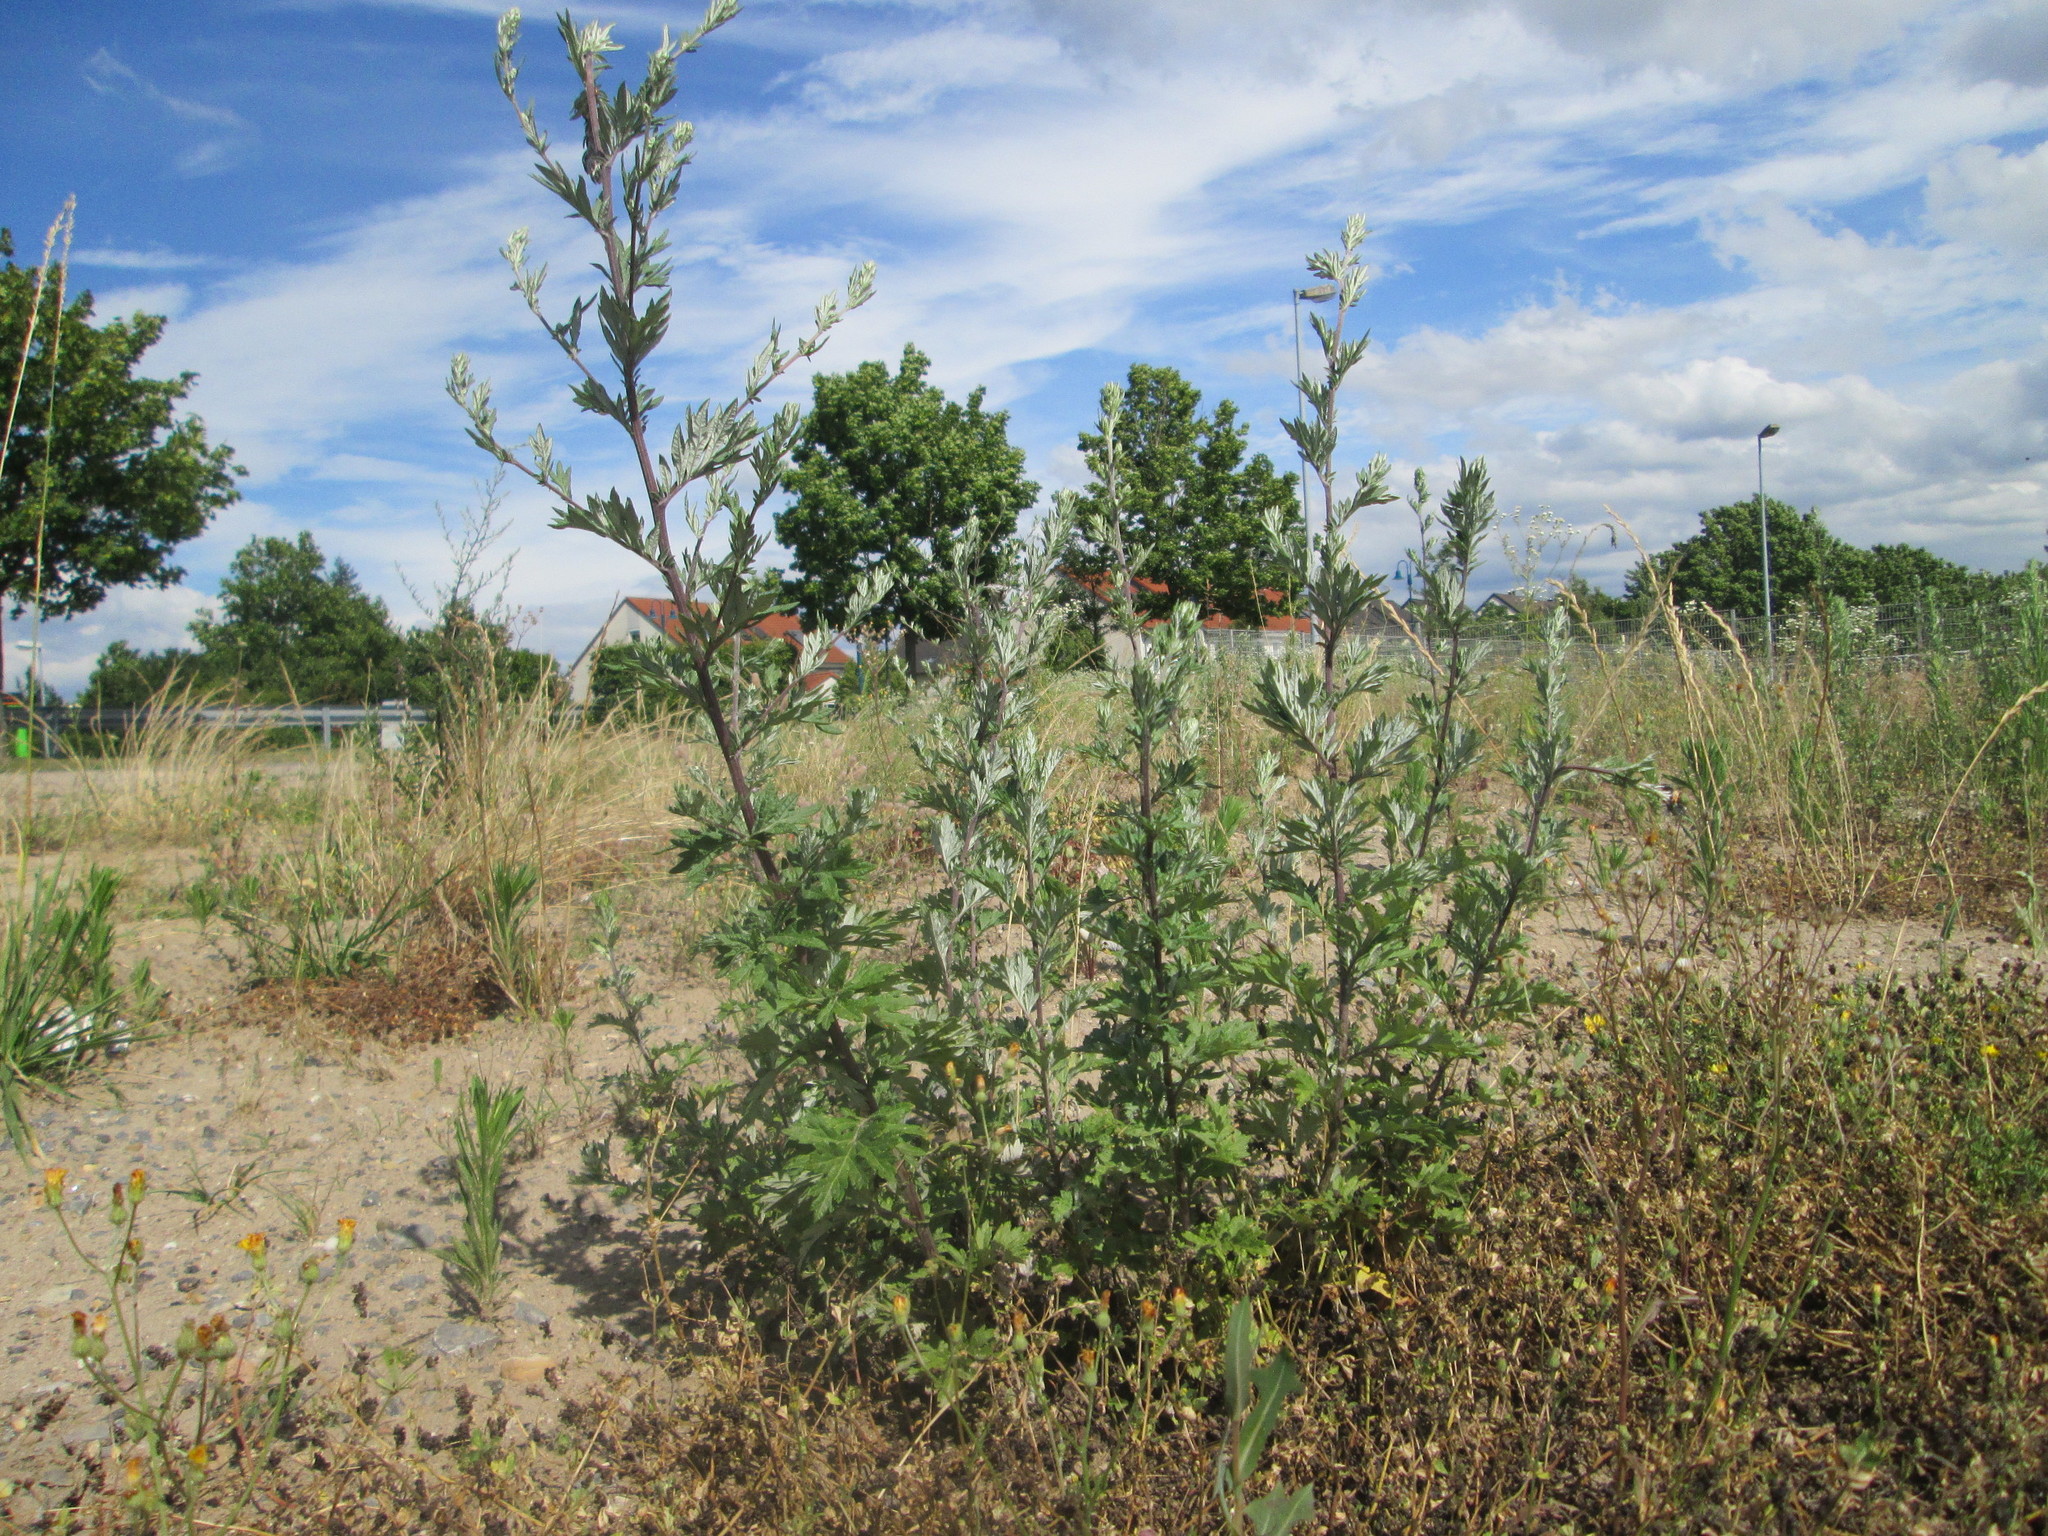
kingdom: Plantae
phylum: Tracheophyta
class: Magnoliopsida
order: Asterales
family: Asteraceae
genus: Artemisia
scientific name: Artemisia vulgaris
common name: Mugwort
